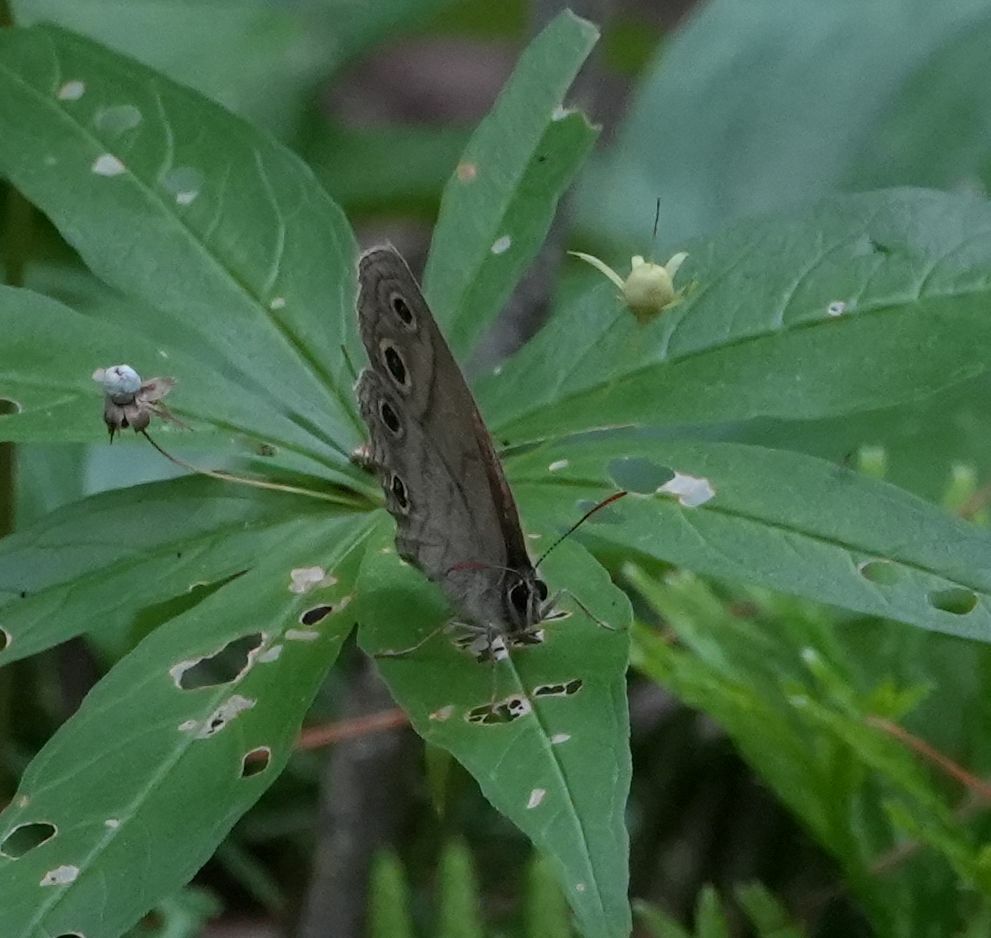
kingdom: Animalia
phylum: Arthropoda
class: Insecta
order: Lepidoptera
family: Nymphalidae
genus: Euptychia
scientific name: Euptychia cymela
